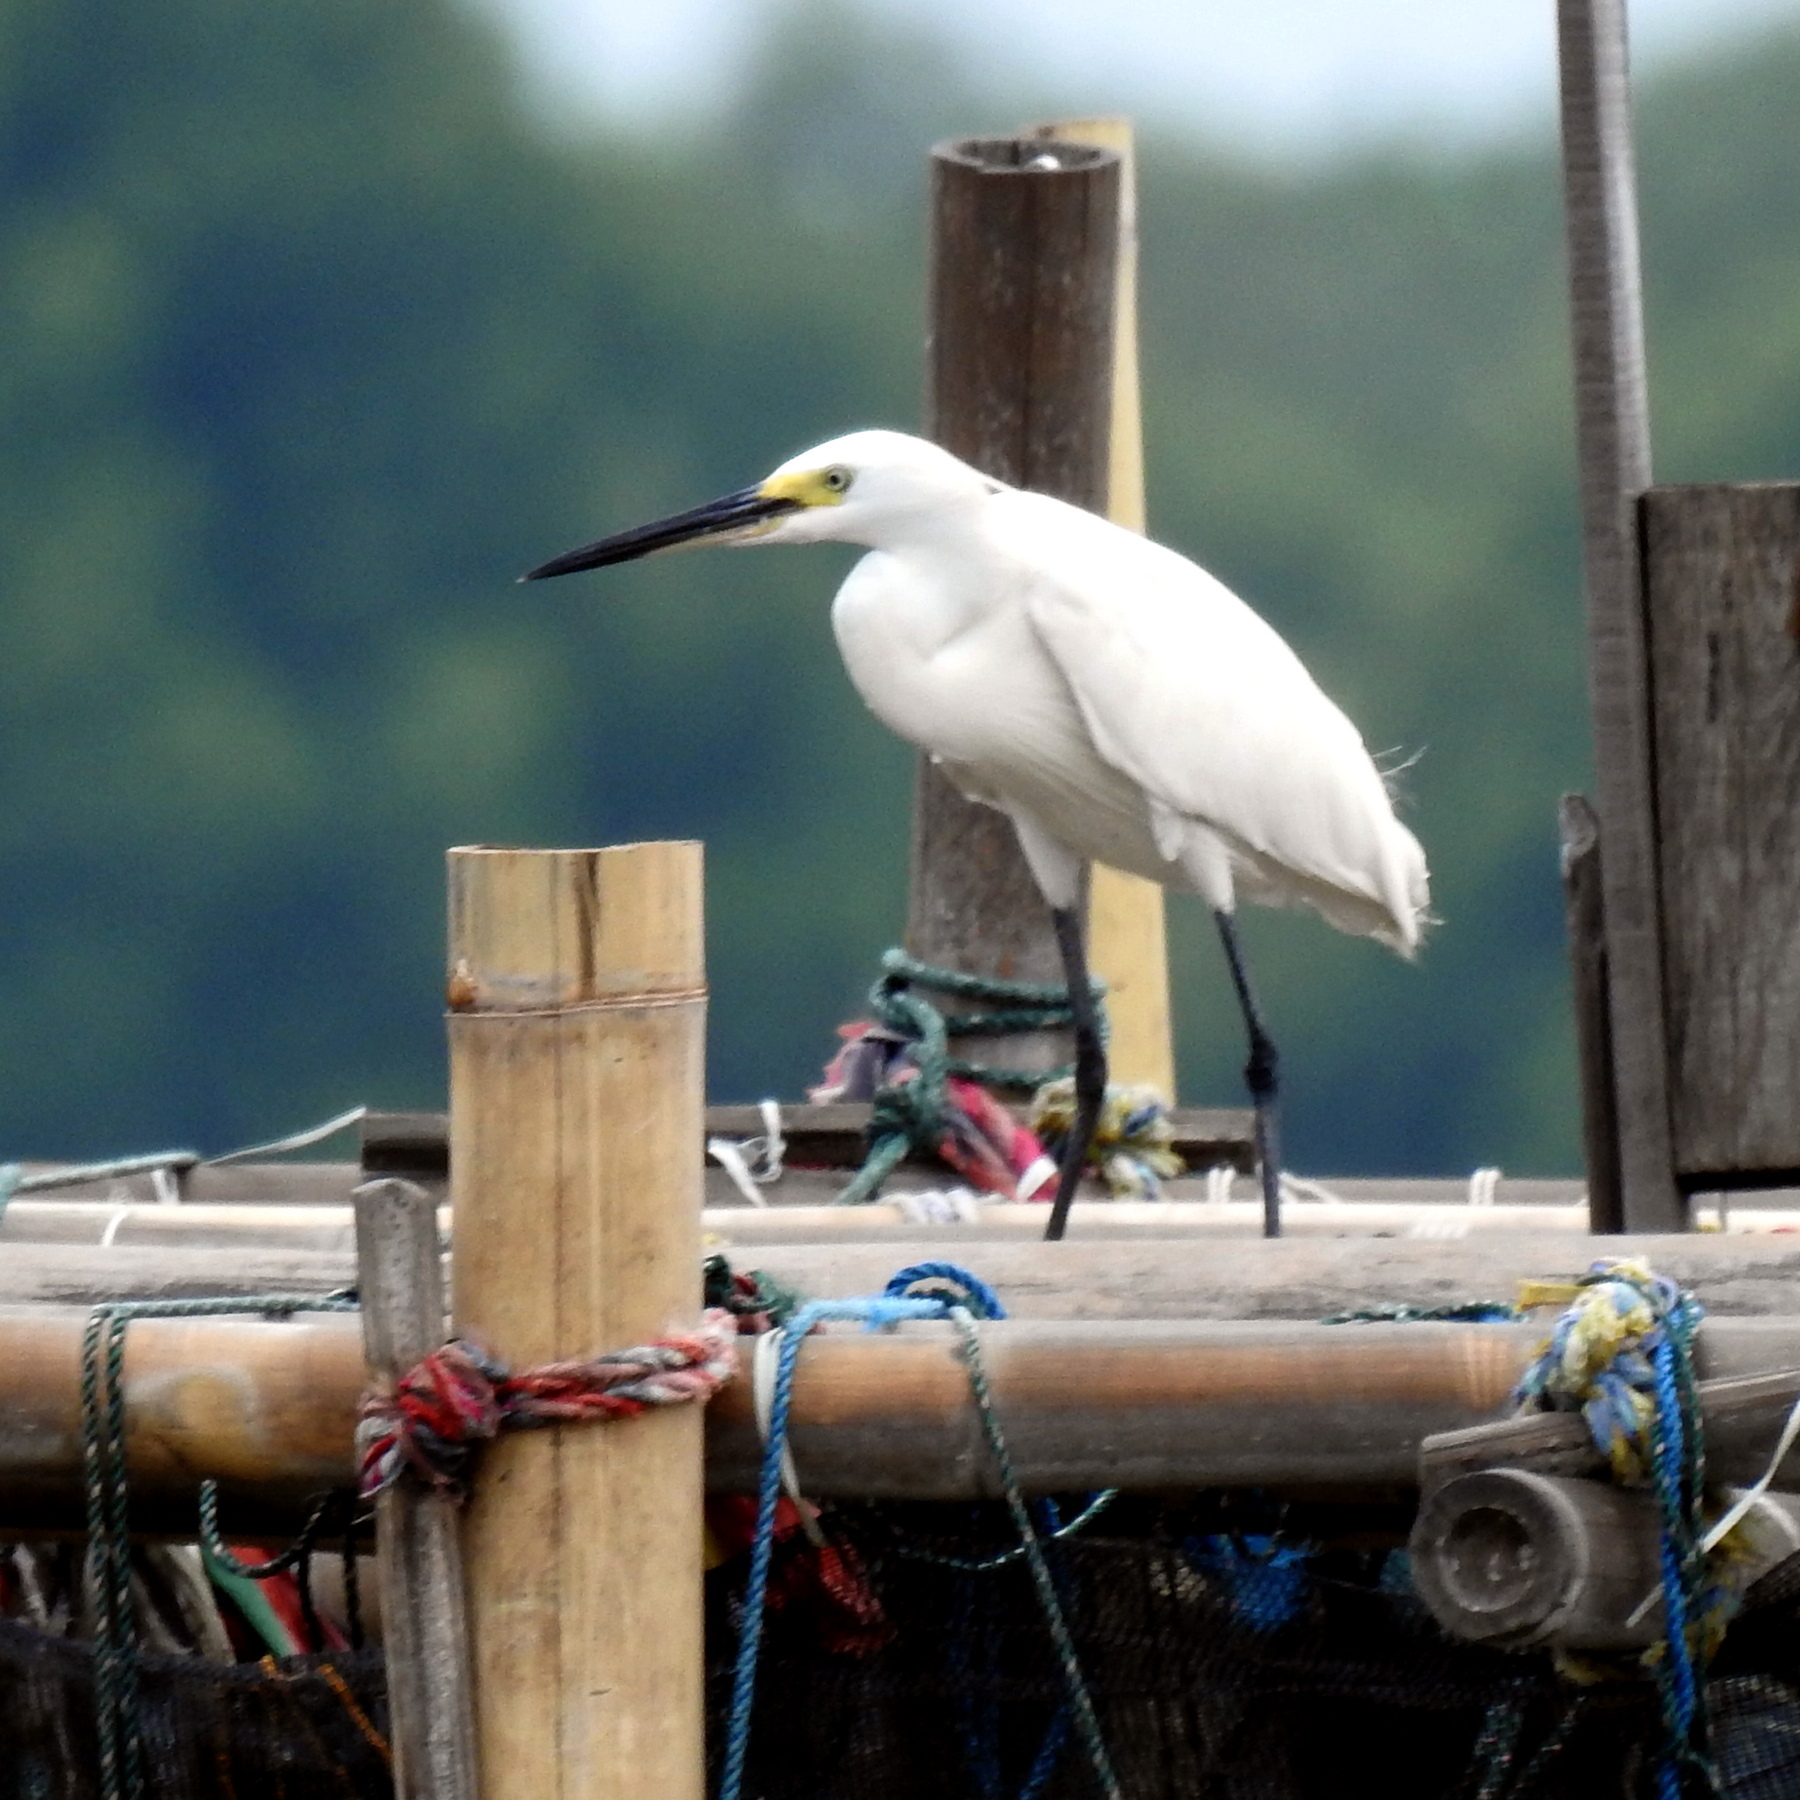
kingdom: Animalia
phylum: Chordata
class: Aves
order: Pelecaniformes
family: Ardeidae
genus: Egretta
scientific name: Egretta garzetta
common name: Little egret
